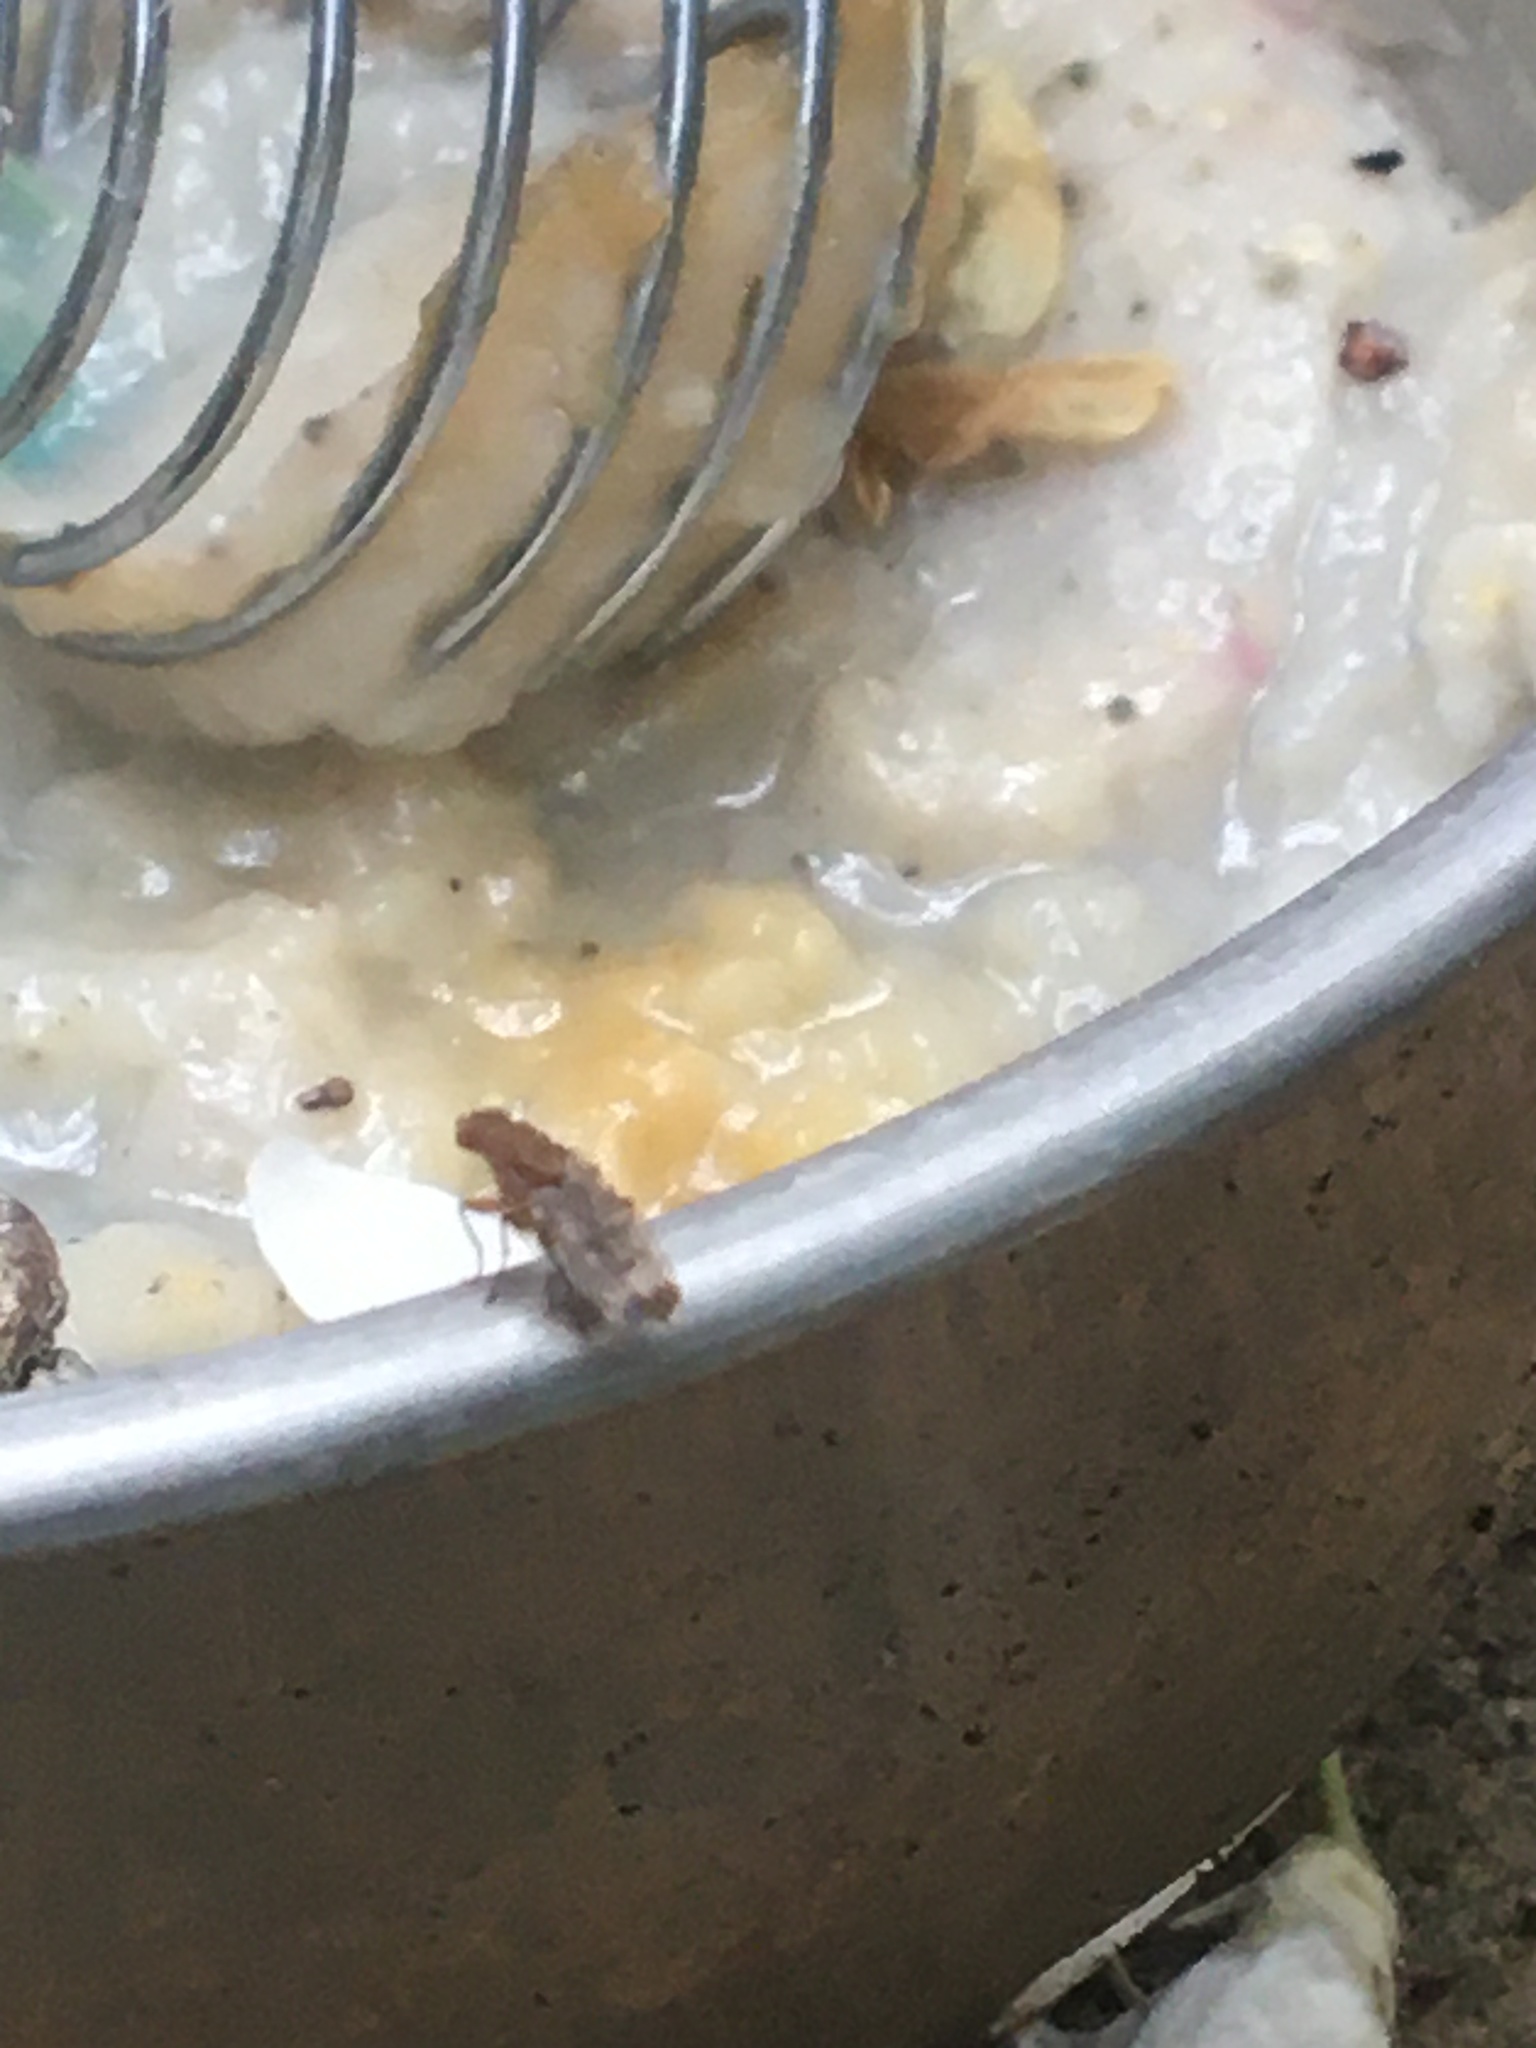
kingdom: Animalia
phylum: Arthropoda
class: Insecta
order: Diptera
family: Heleomyzidae
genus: Suillia
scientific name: Suillia variegata
